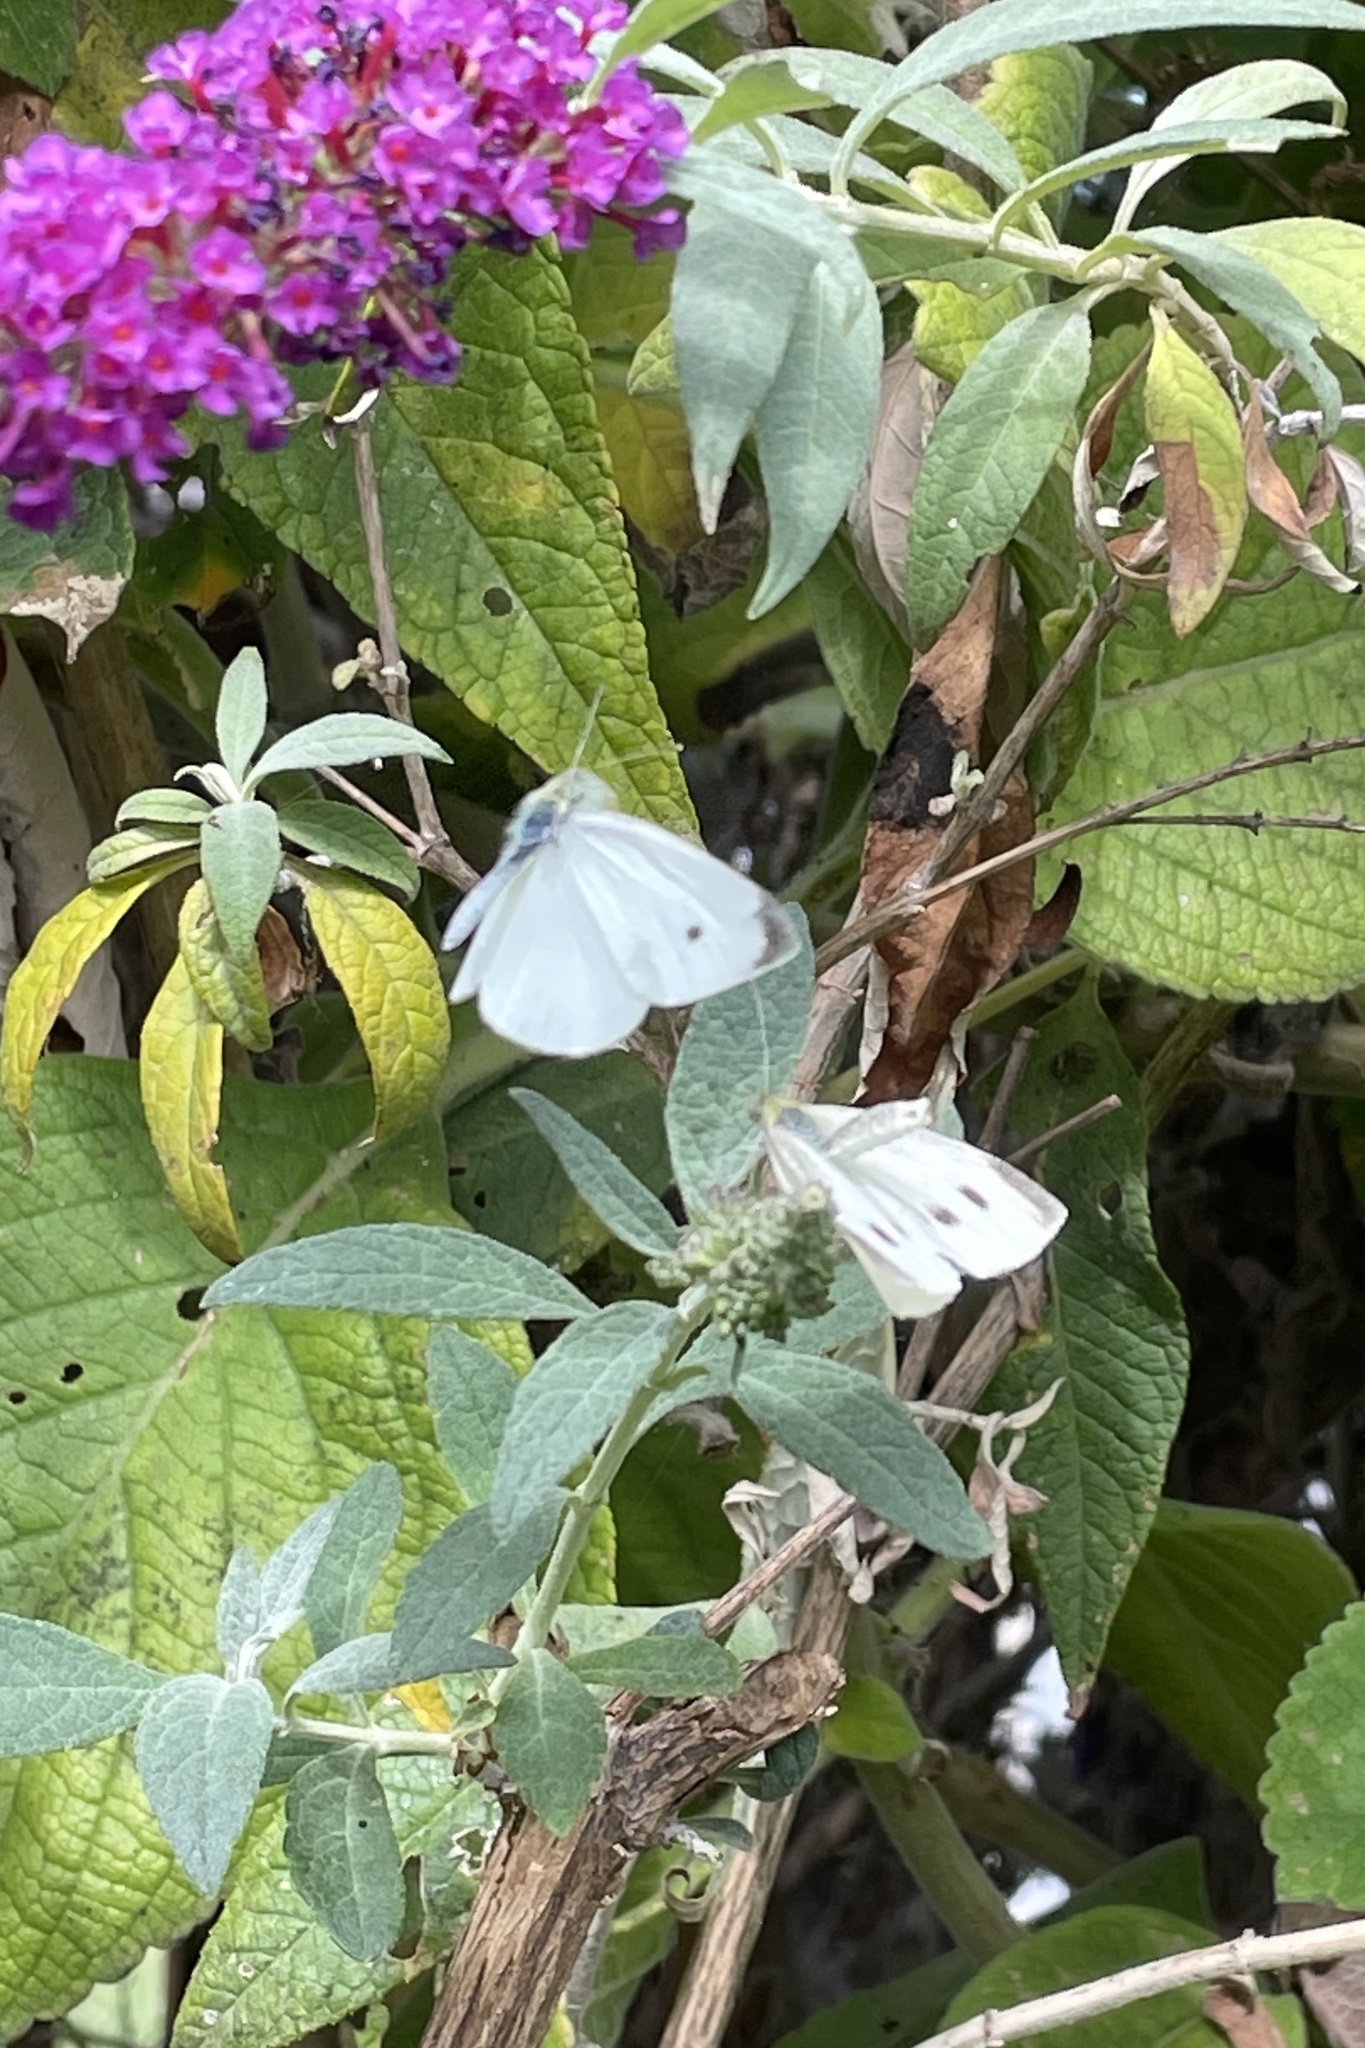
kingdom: Animalia
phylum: Arthropoda
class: Insecta
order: Lepidoptera
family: Pieridae
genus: Pieris
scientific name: Pieris rapae
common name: Small white
